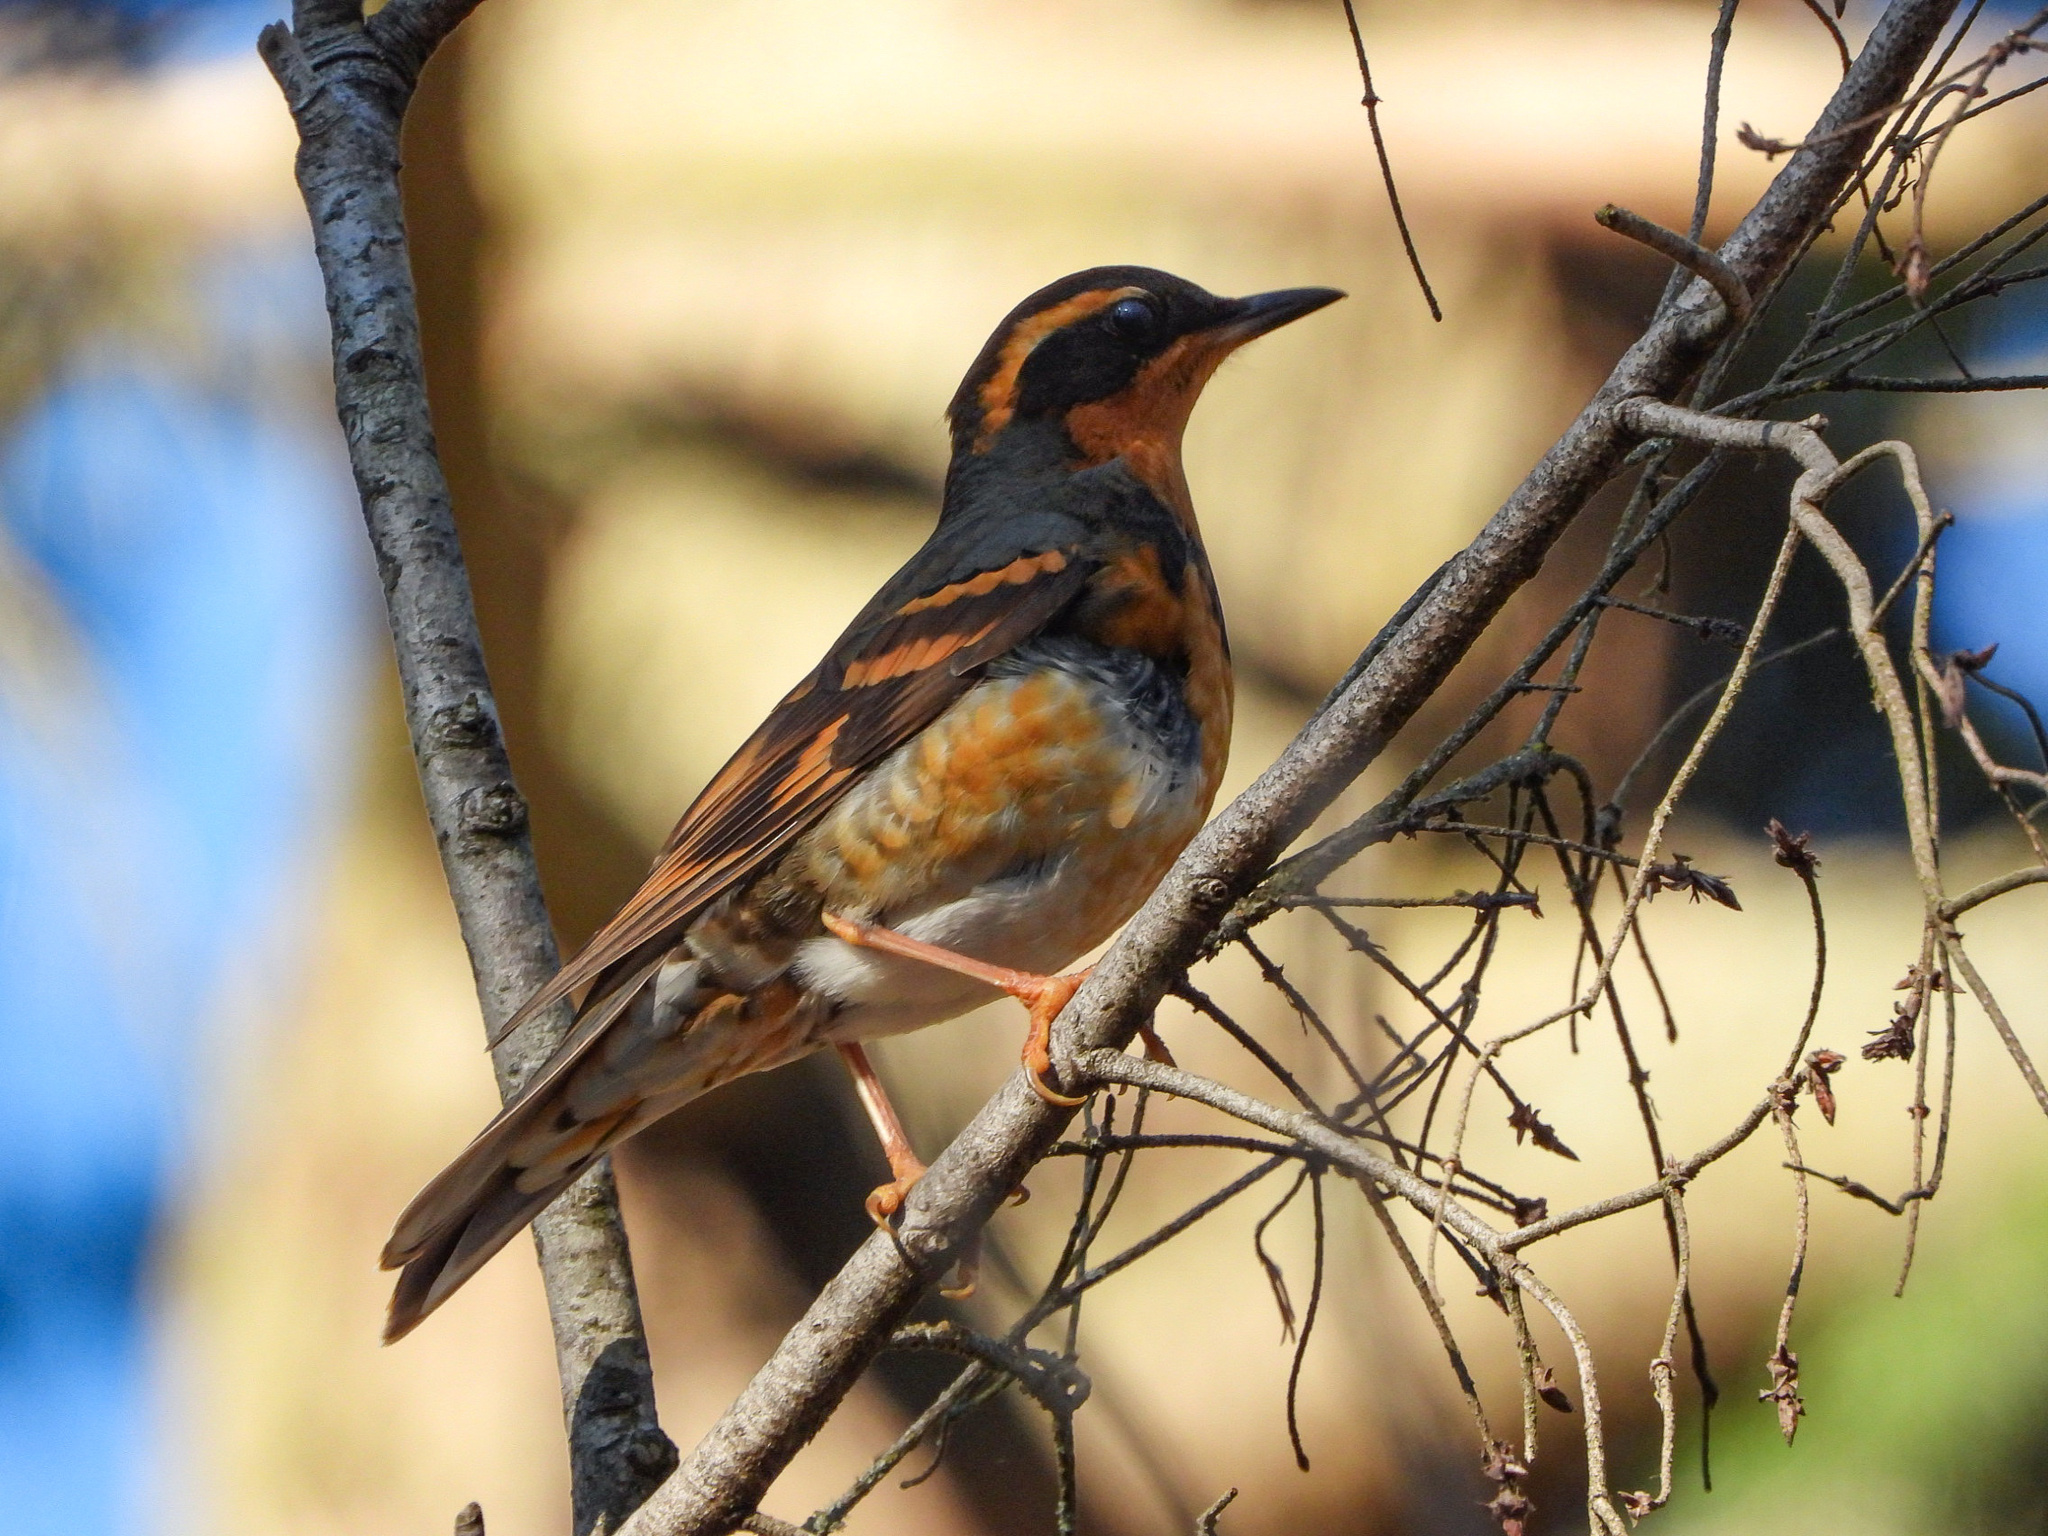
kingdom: Animalia
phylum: Chordata
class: Aves
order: Passeriformes
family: Turdidae
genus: Ixoreus
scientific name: Ixoreus naevius
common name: Varied thrush
